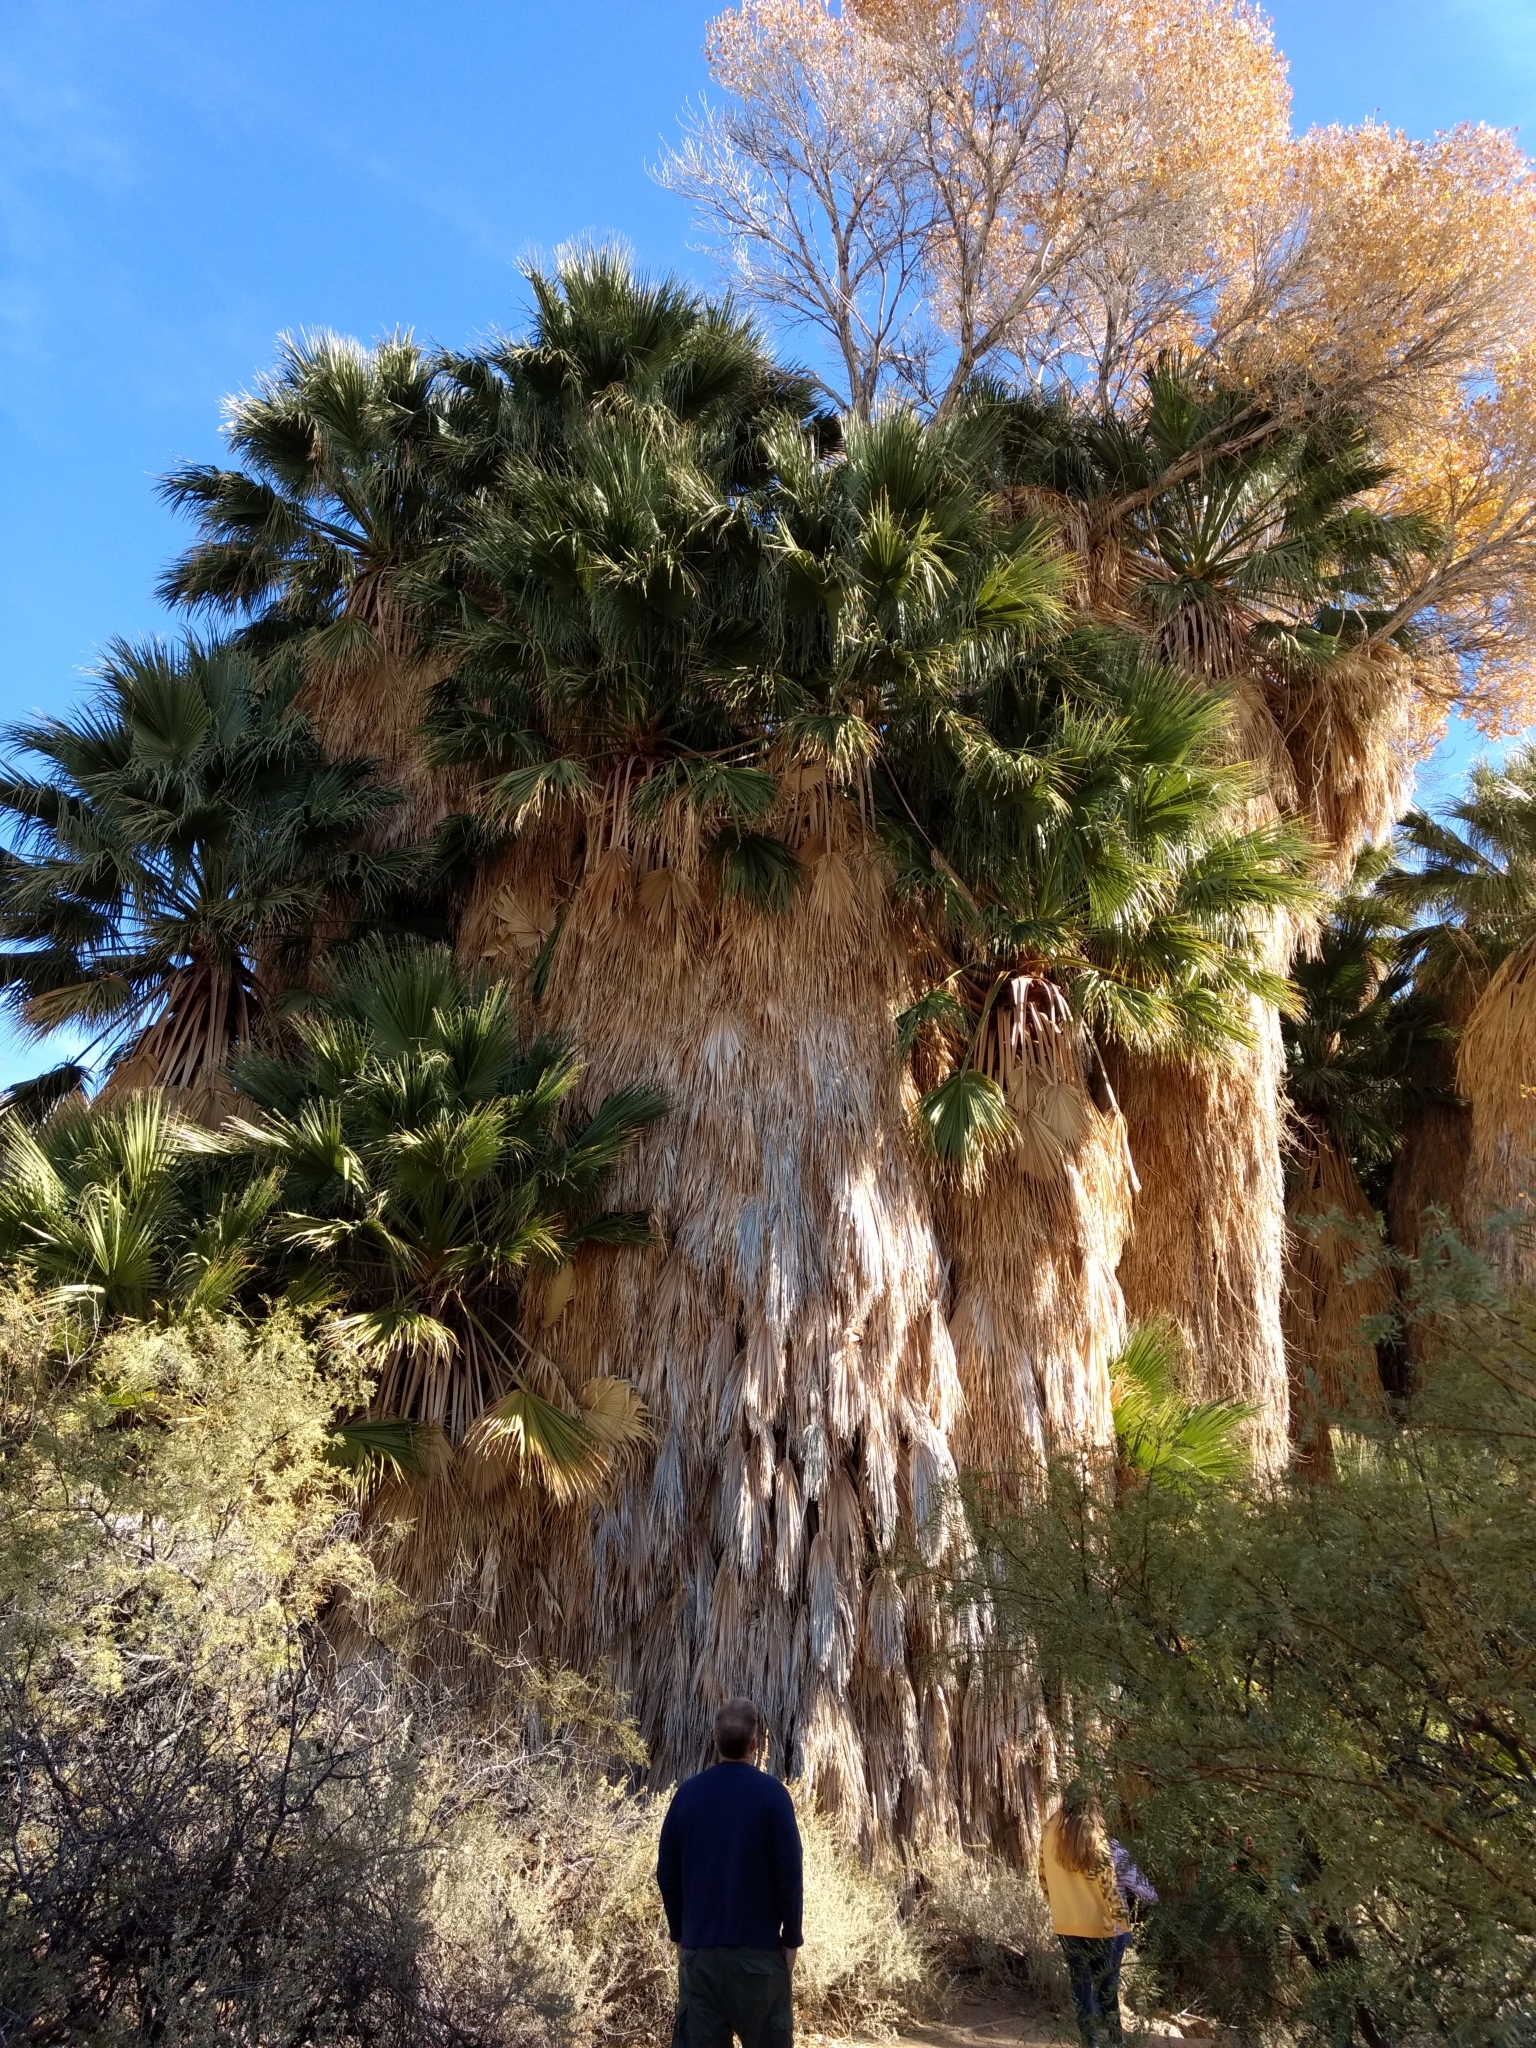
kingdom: Plantae
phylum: Tracheophyta
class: Liliopsida
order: Arecales
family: Arecaceae
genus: Washingtonia
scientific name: Washingtonia filifera
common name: California fan palm
